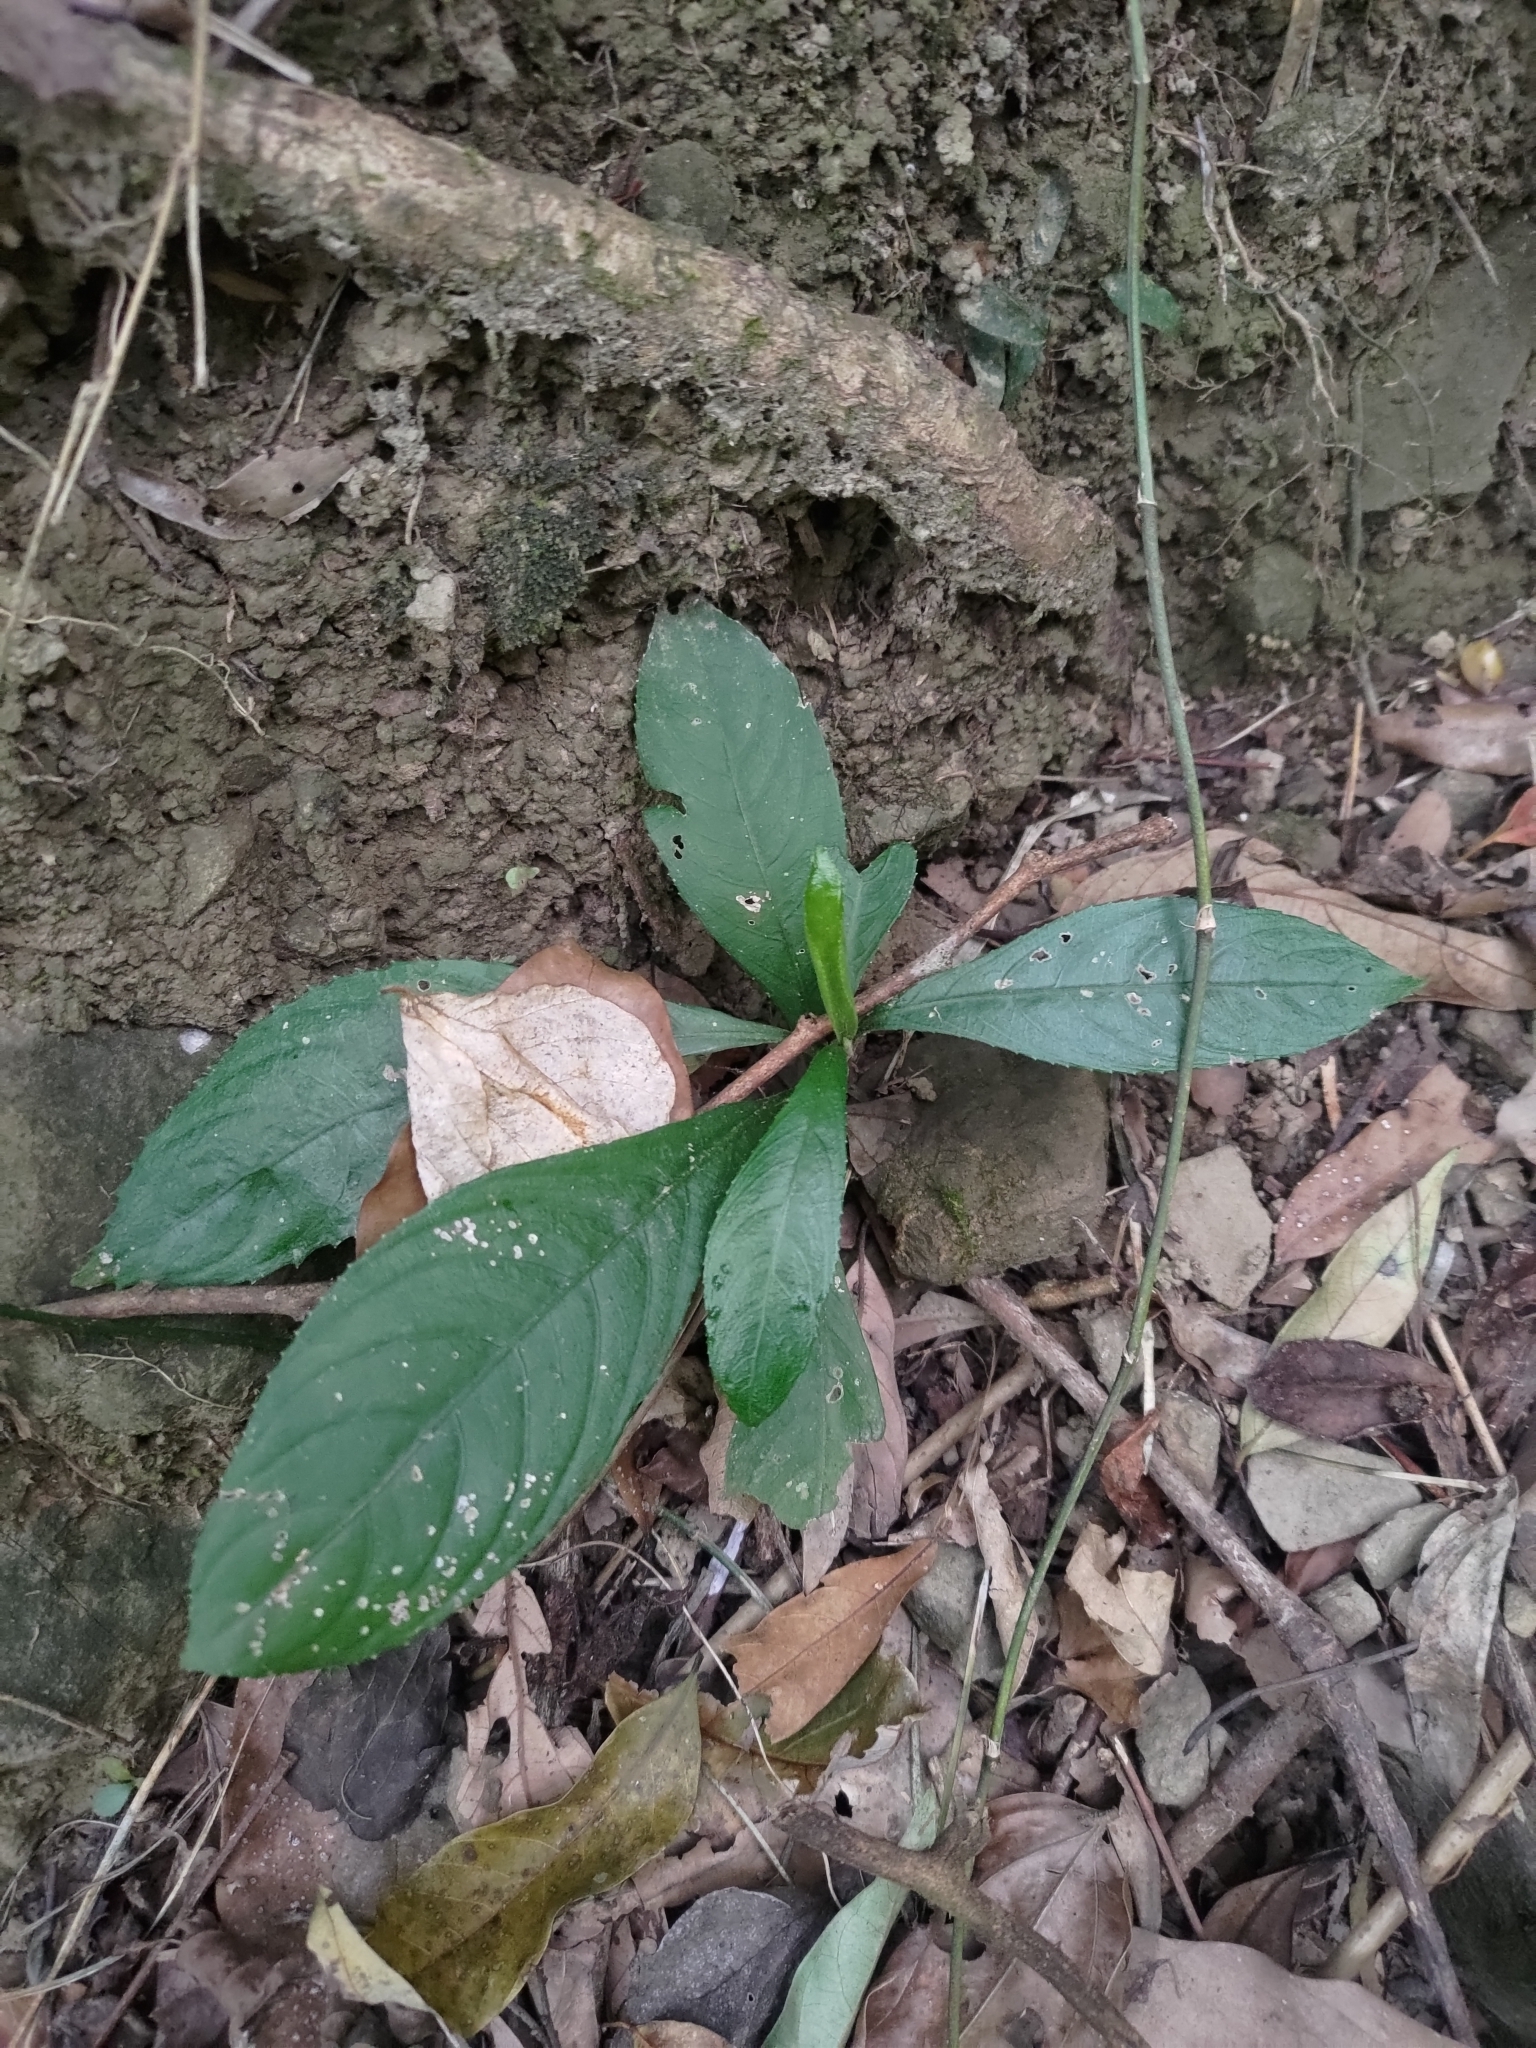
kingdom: Plantae
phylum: Tracheophyta
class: Magnoliopsida
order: Asterales
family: Asteraceae
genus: Blumea
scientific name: Blumea lanceolaria
